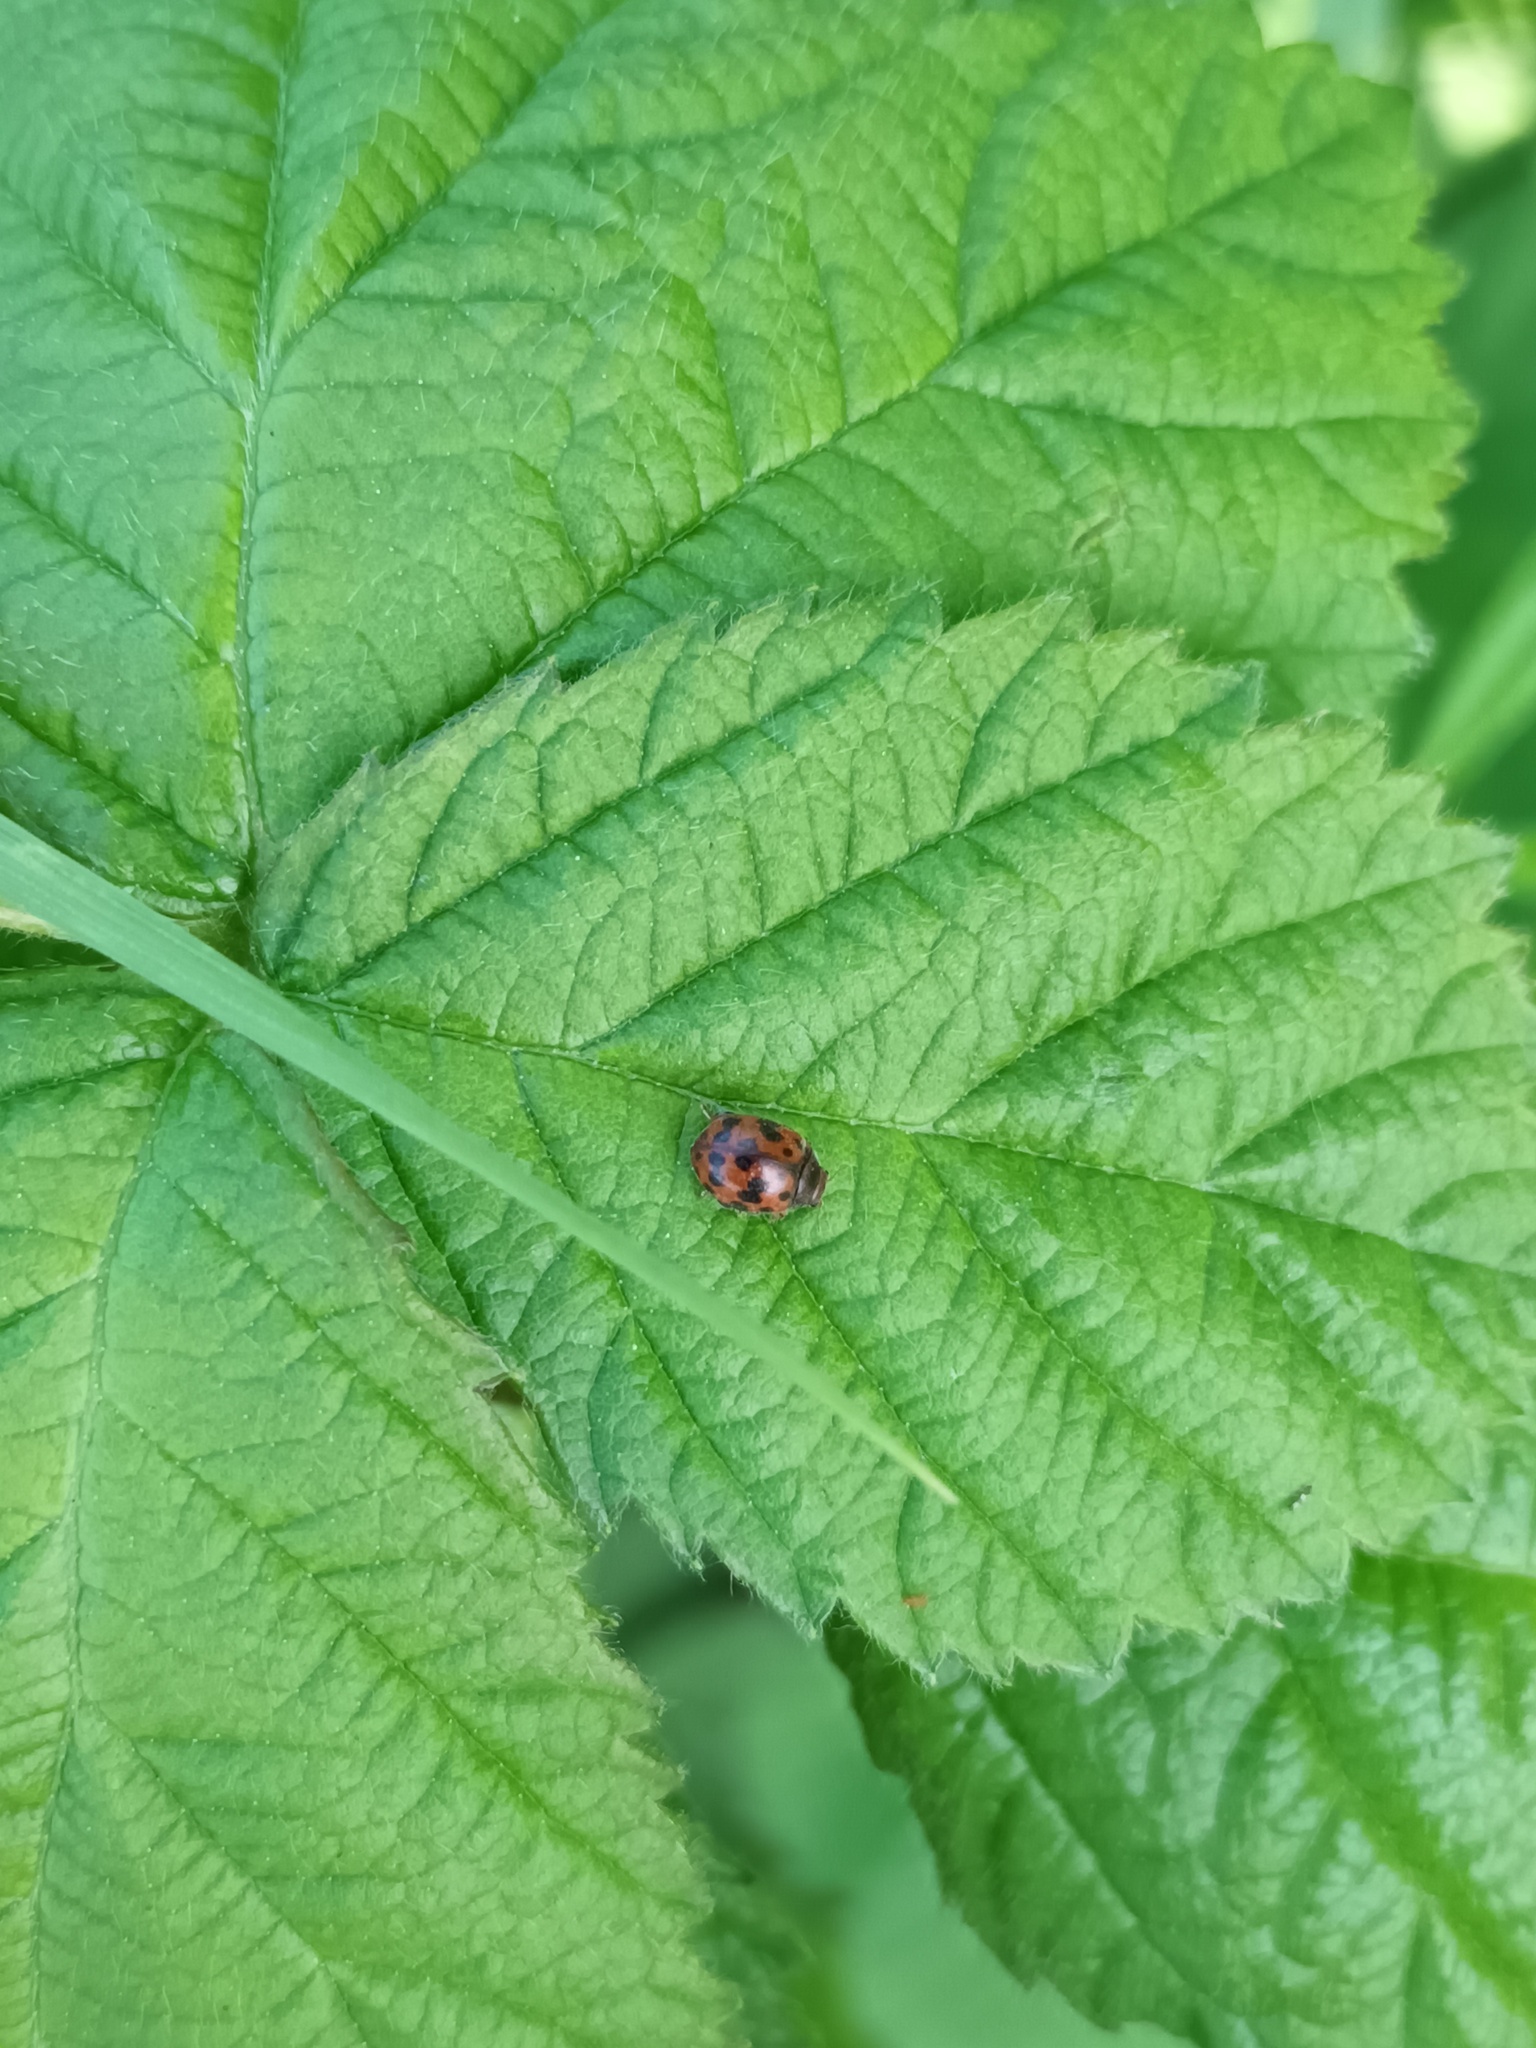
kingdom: Animalia
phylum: Arthropoda
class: Insecta
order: Coleoptera
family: Coccinellidae
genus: Subcoccinella
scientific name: Subcoccinella vigintiquatuorpunctata
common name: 24-spot ladybird
